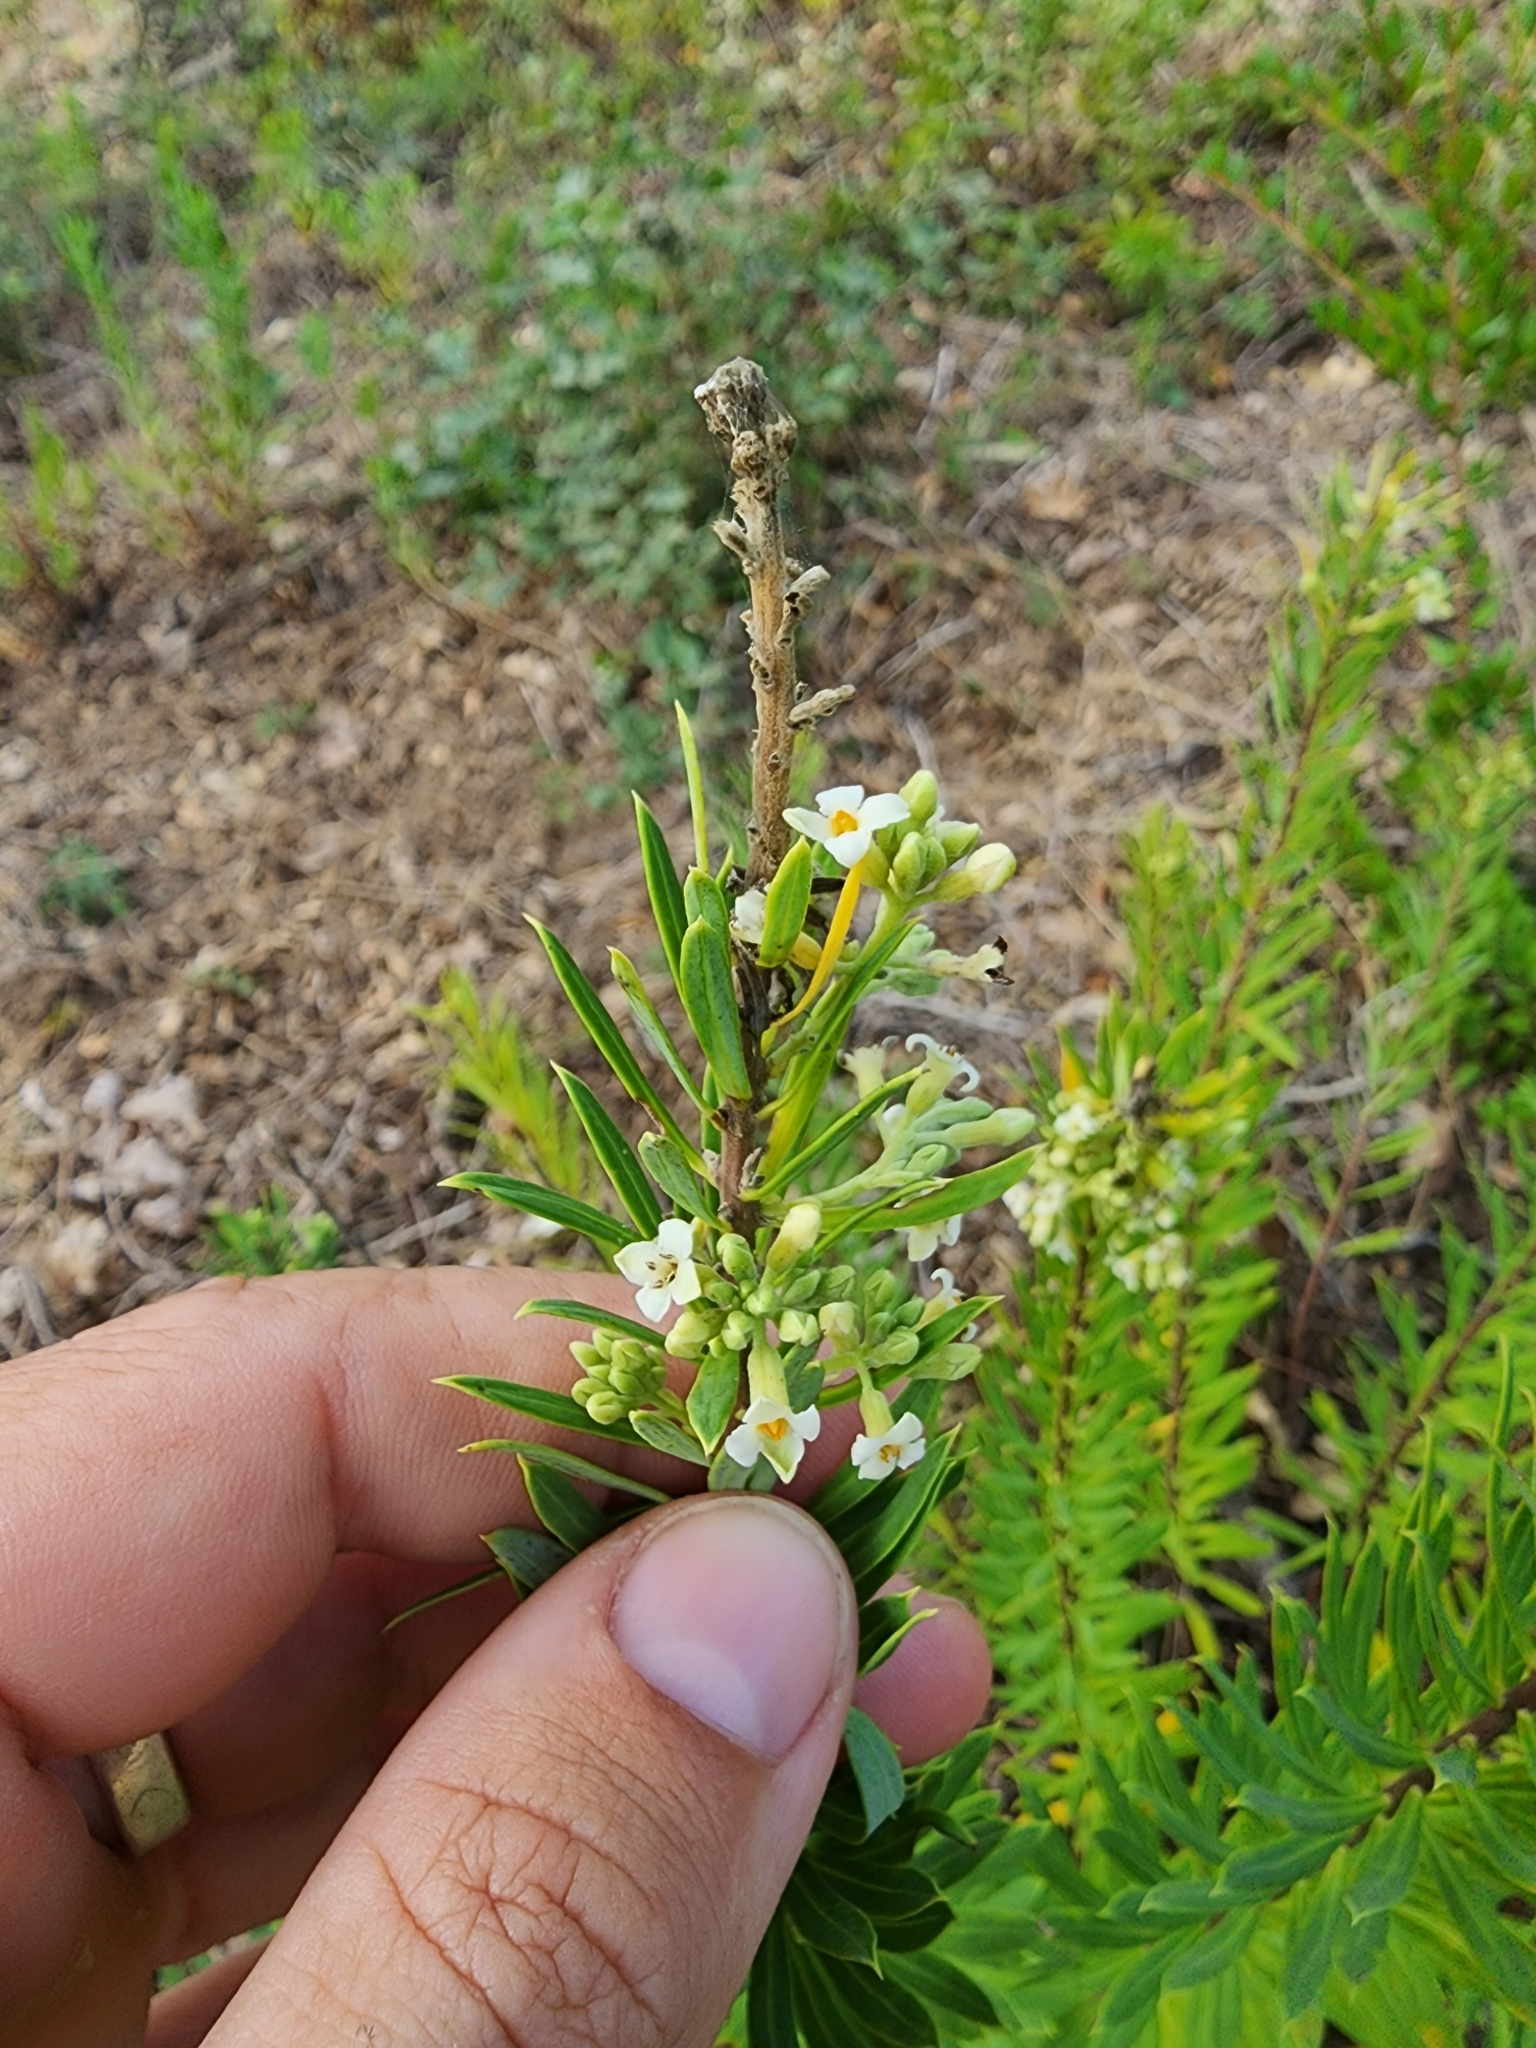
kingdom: Plantae
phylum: Tracheophyta
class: Magnoliopsida
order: Malvales
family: Thymelaeaceae
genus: Daphne
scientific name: Daphne gnidium
